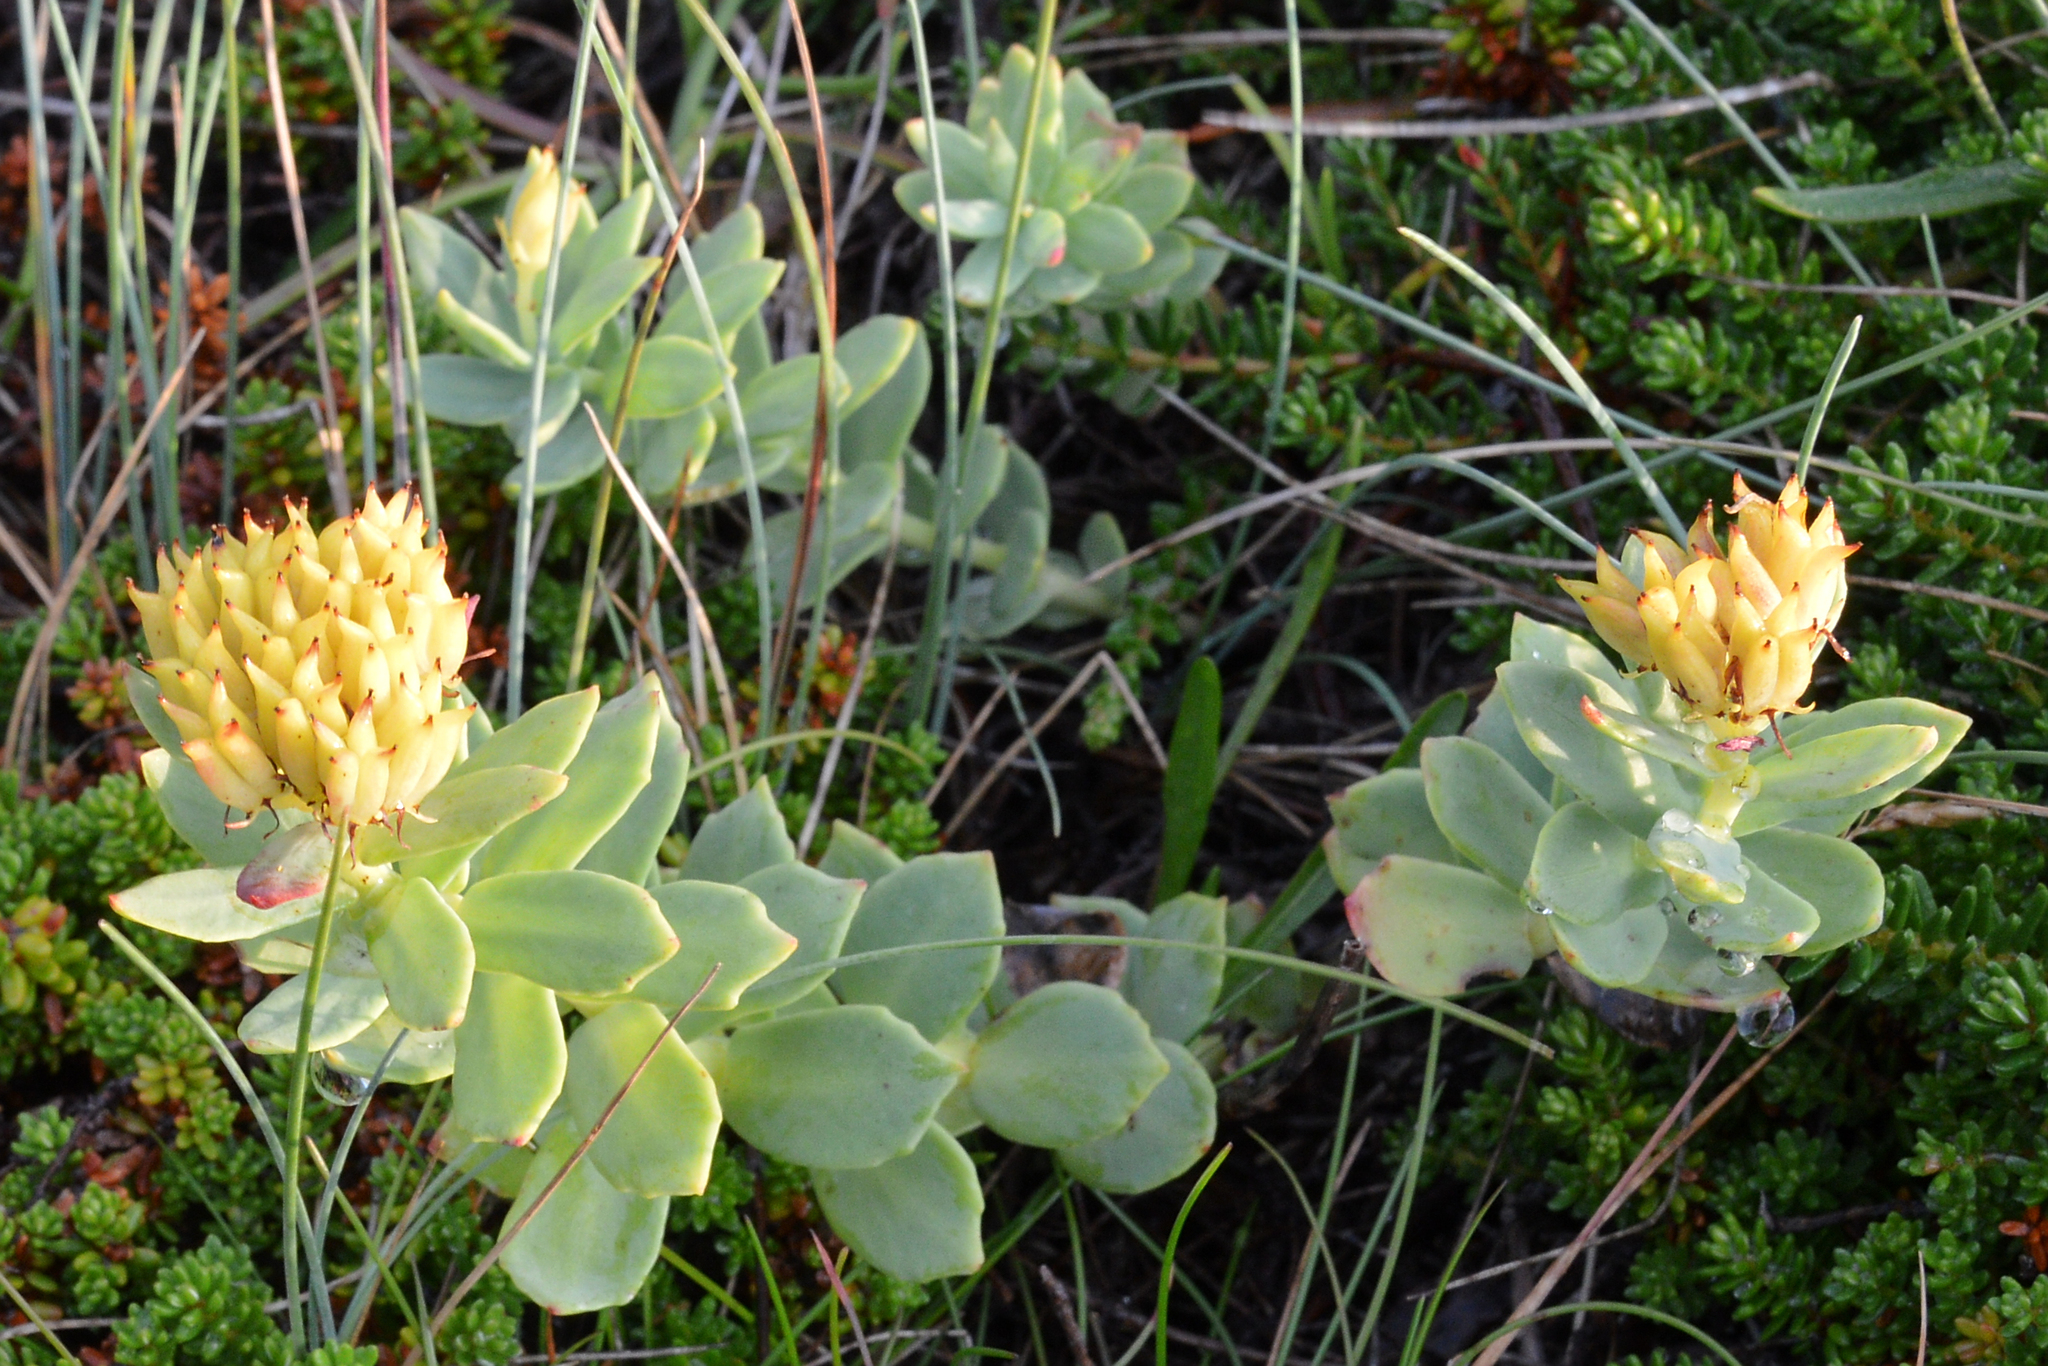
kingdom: Plantae
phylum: Tracheophyta
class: Magnoliopsida
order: Saxifragales
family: Crassulaceae
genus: Rhodiola
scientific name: Rhodiola rosea
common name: Roseroot
